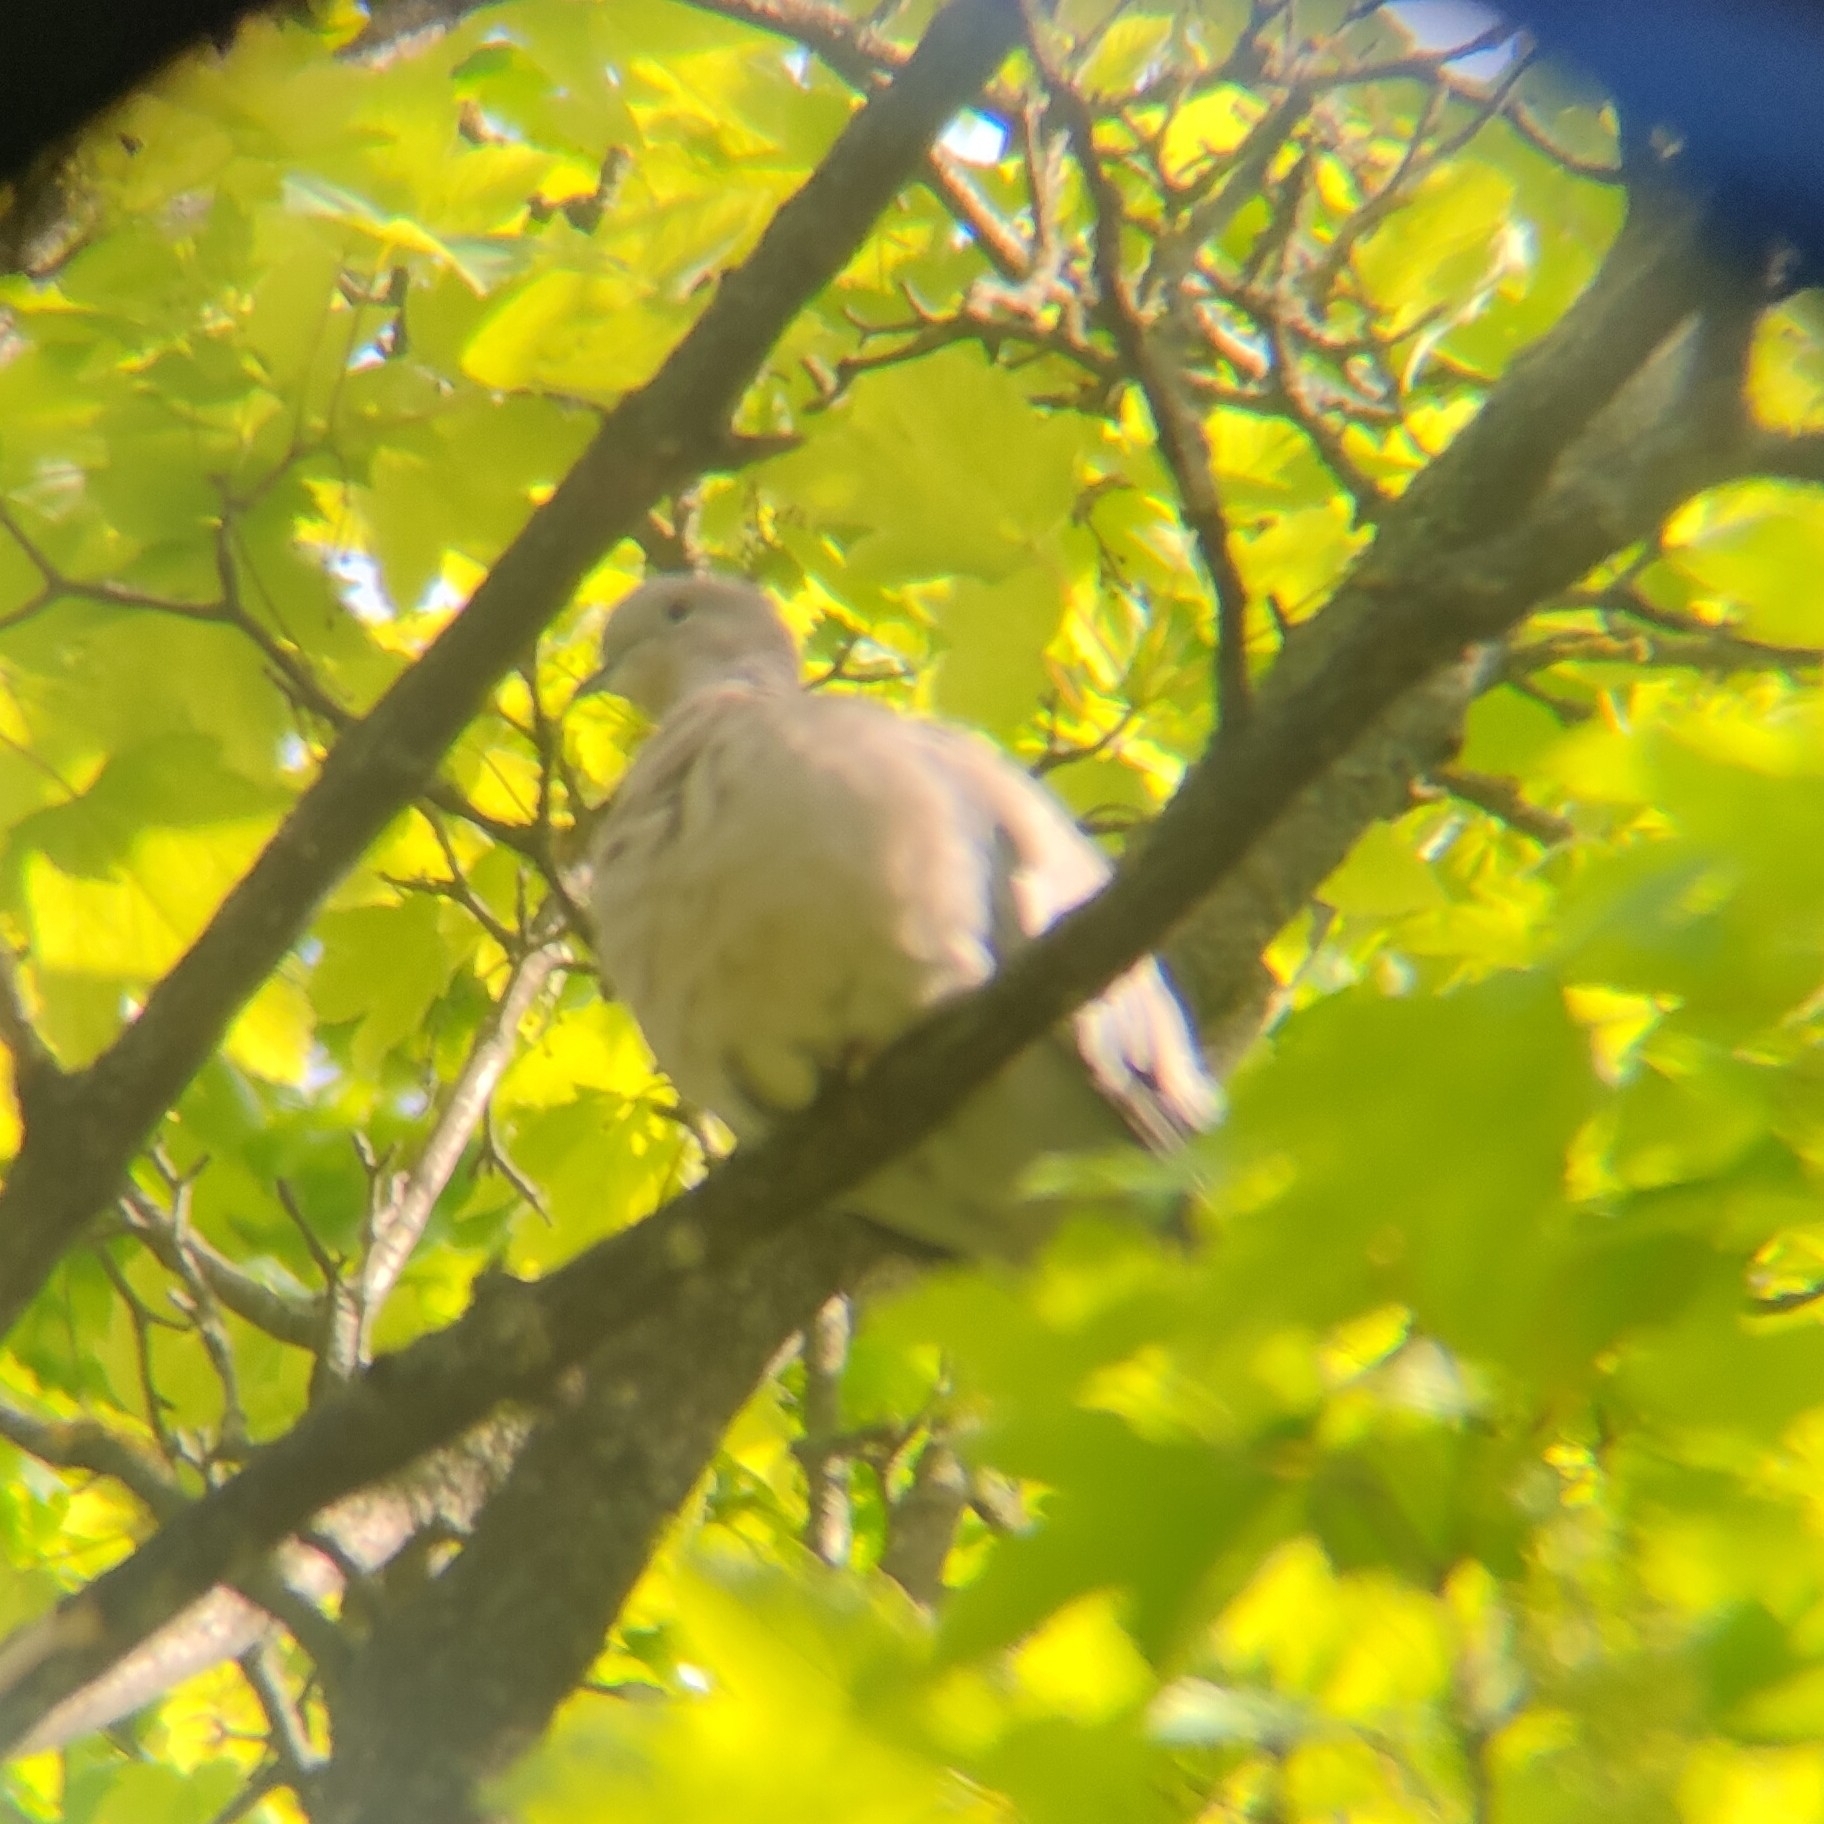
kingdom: Animalia
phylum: Chordata
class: Aves
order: Columbiformes
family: Columbidae
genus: Streptopelia
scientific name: Streptopelia decaocto
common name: Eurasian collared dove
